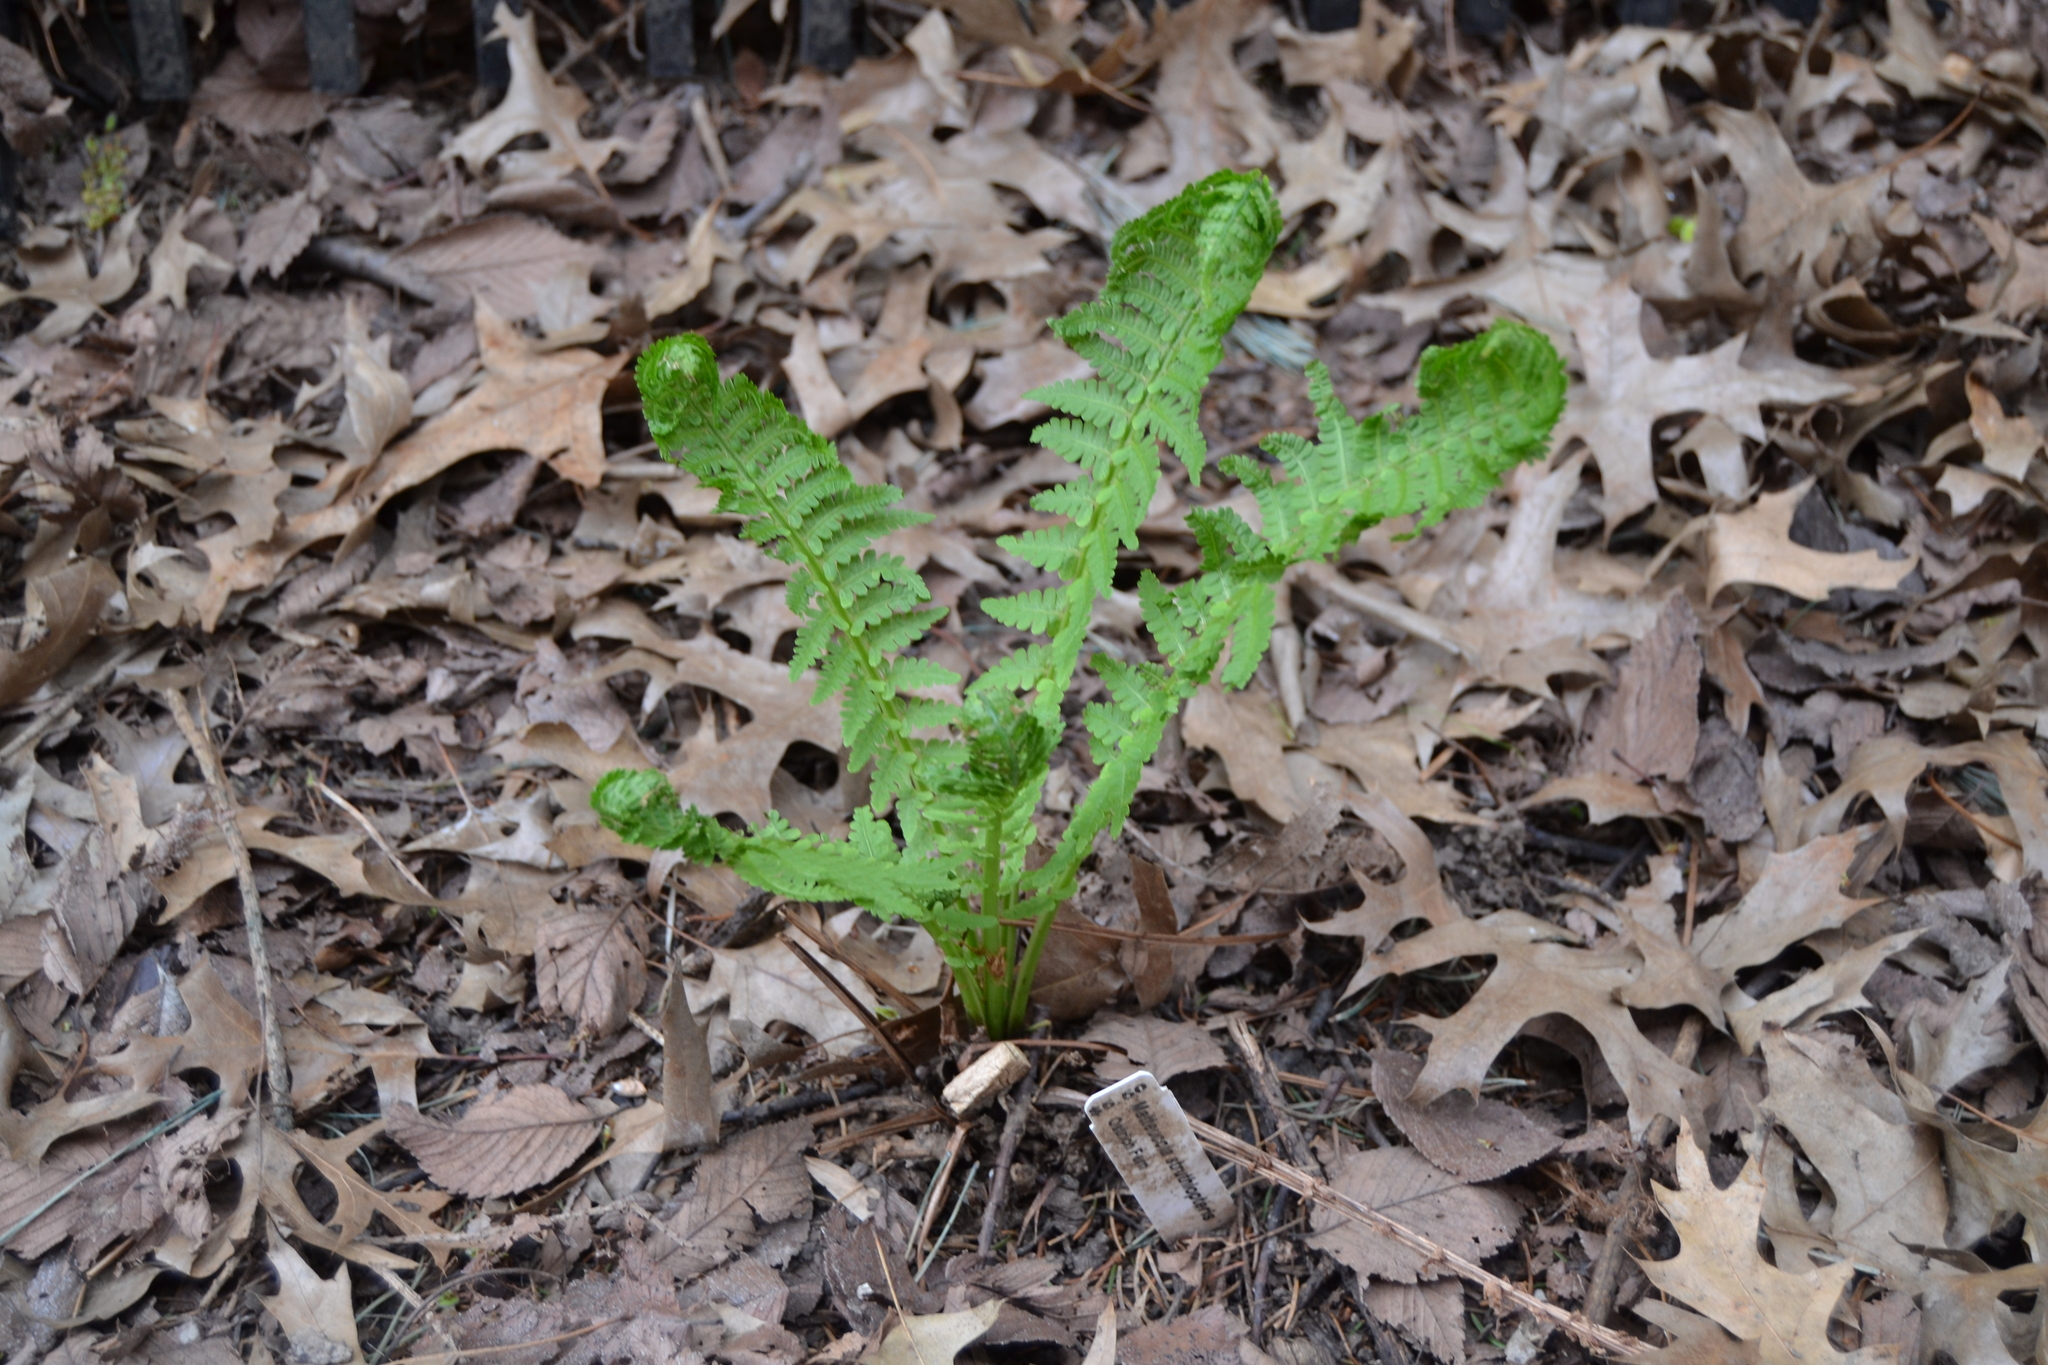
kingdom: Plantae
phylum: Tracheophyta
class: Polypodiopsida
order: Polypodiales
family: Onocleaceae
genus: Matteuccia
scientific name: Matteuccia struthiopteris
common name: Ostrich fern
